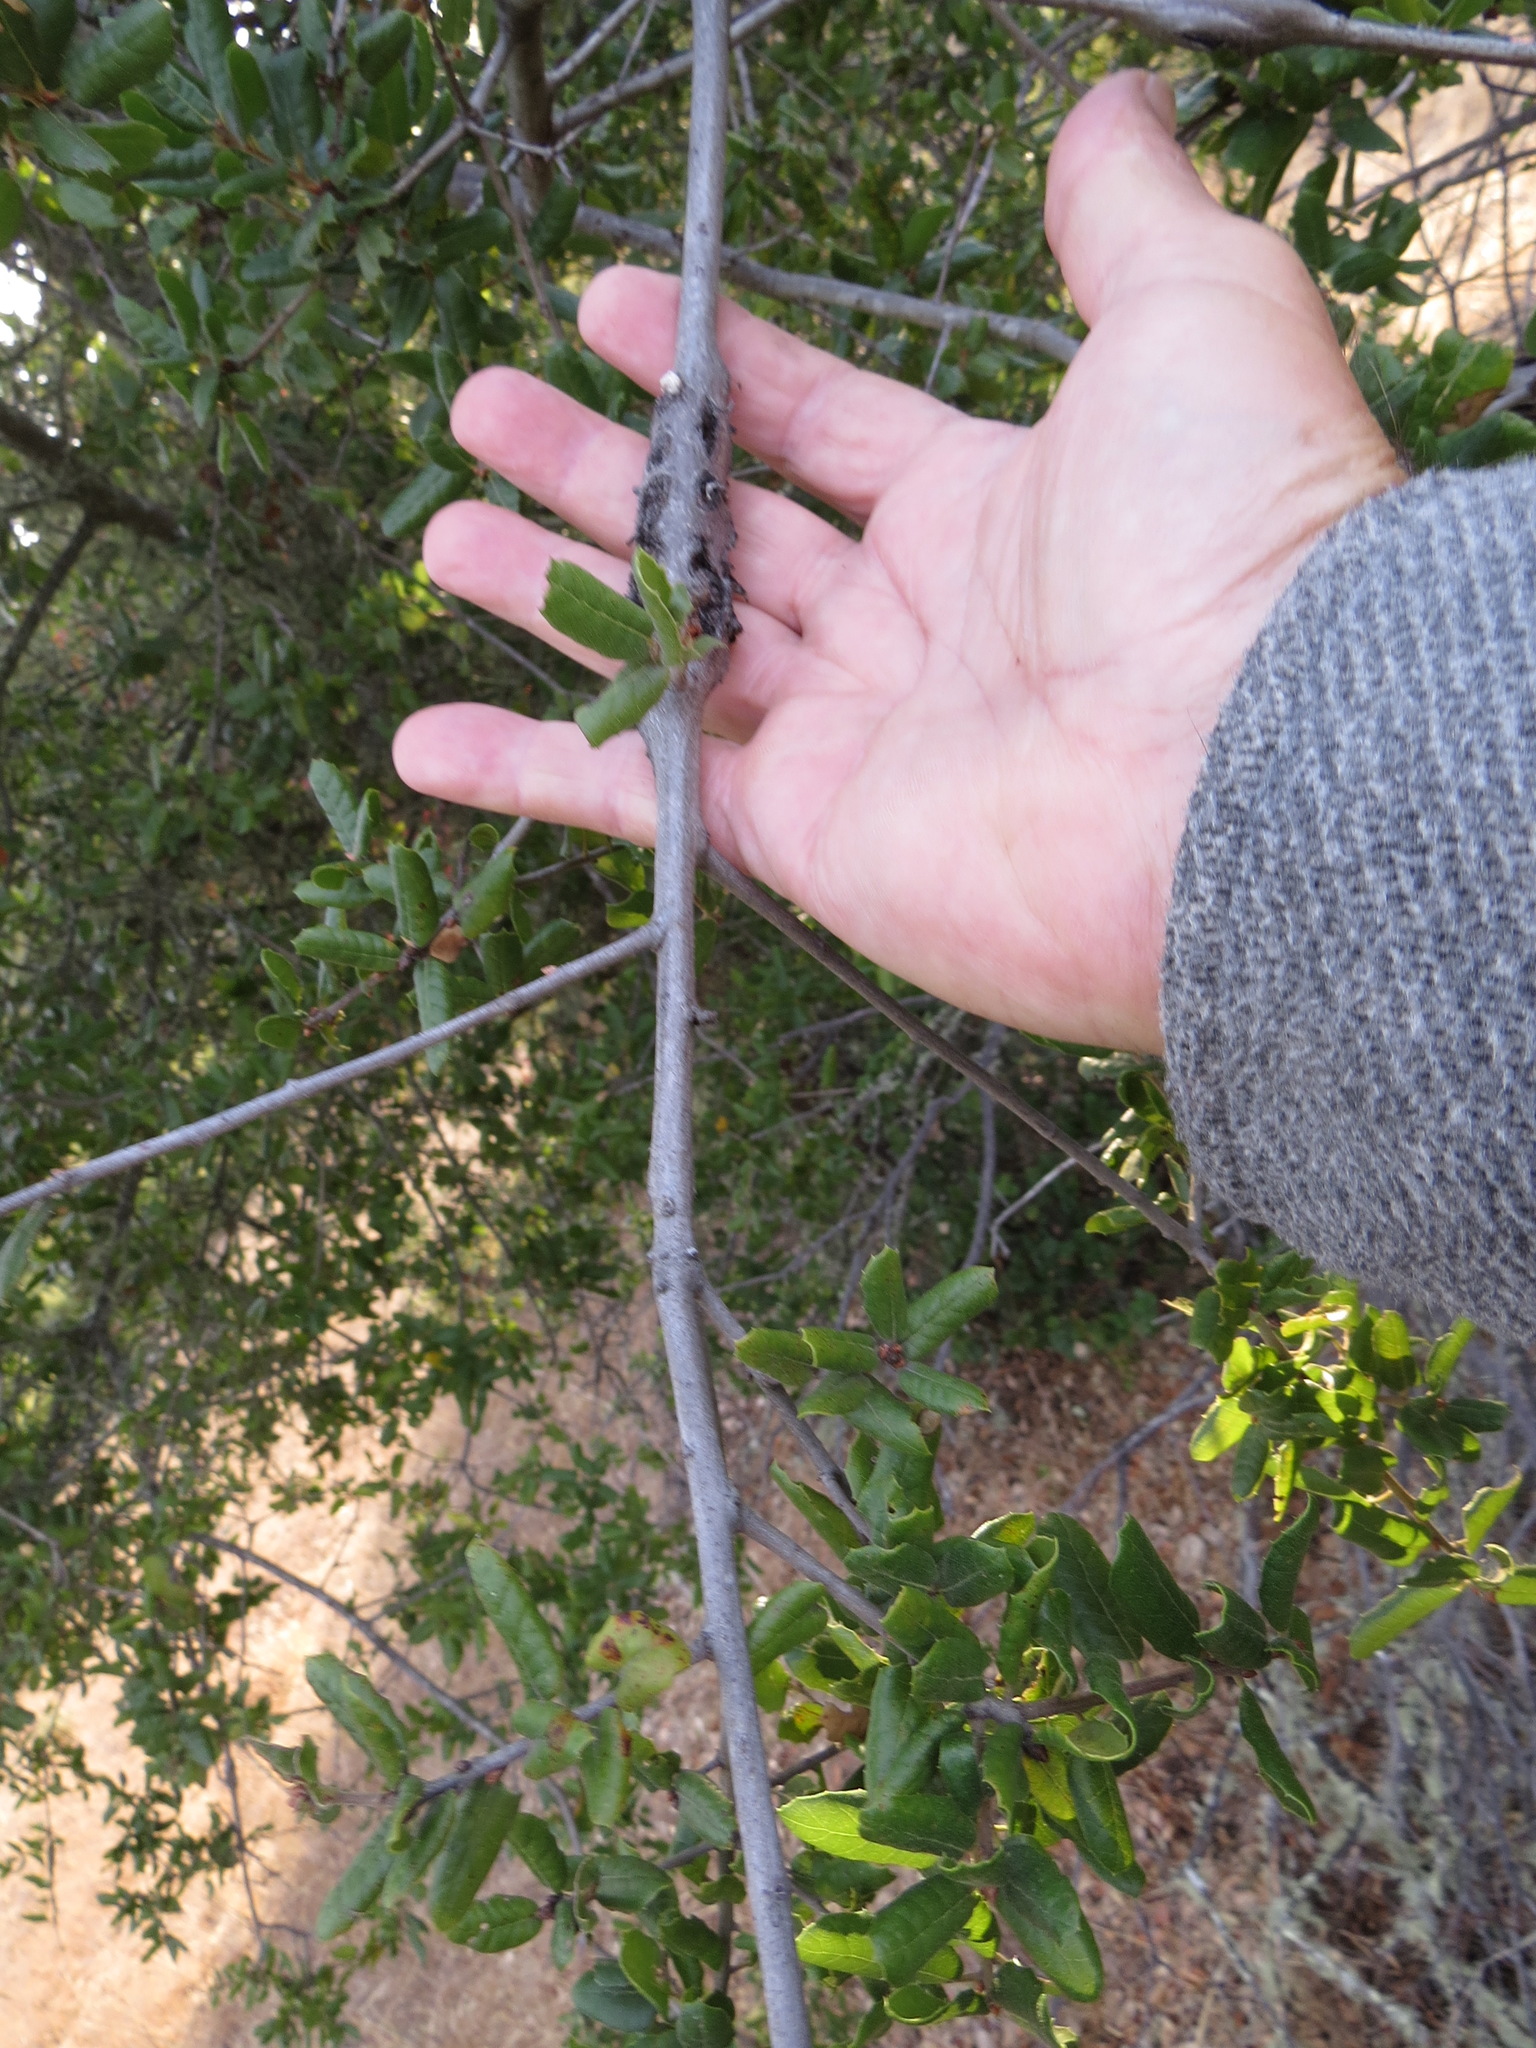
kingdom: Animalia
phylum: Arthropoda
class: Insecta
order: Hymenoptera
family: Cynipidae
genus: Callirhytis
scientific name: Callirhytis
